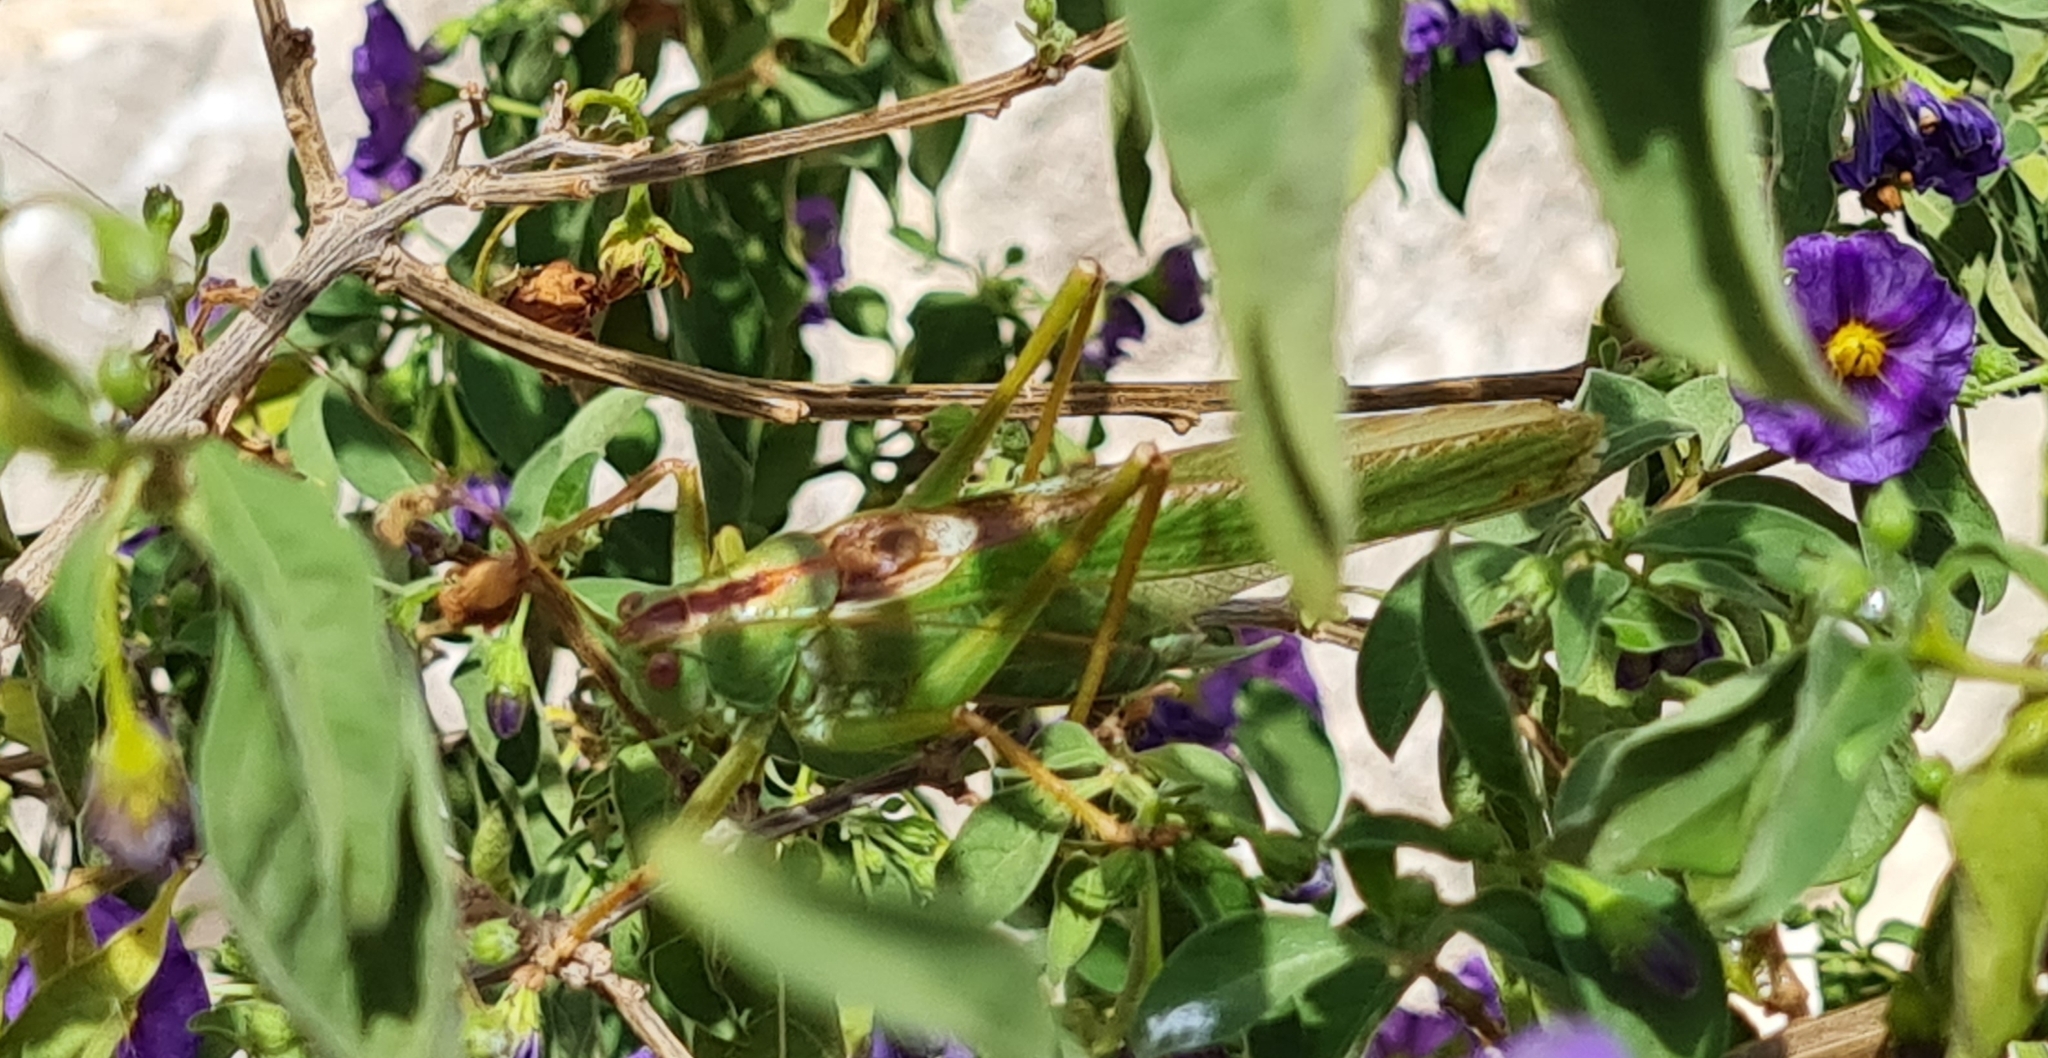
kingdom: Animalia
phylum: Arthropoda
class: Insecta
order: Orthoptera
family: Tettigoniidae
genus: Tettigonia
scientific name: Tettigonia viridissima
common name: Great green bush-cricket
